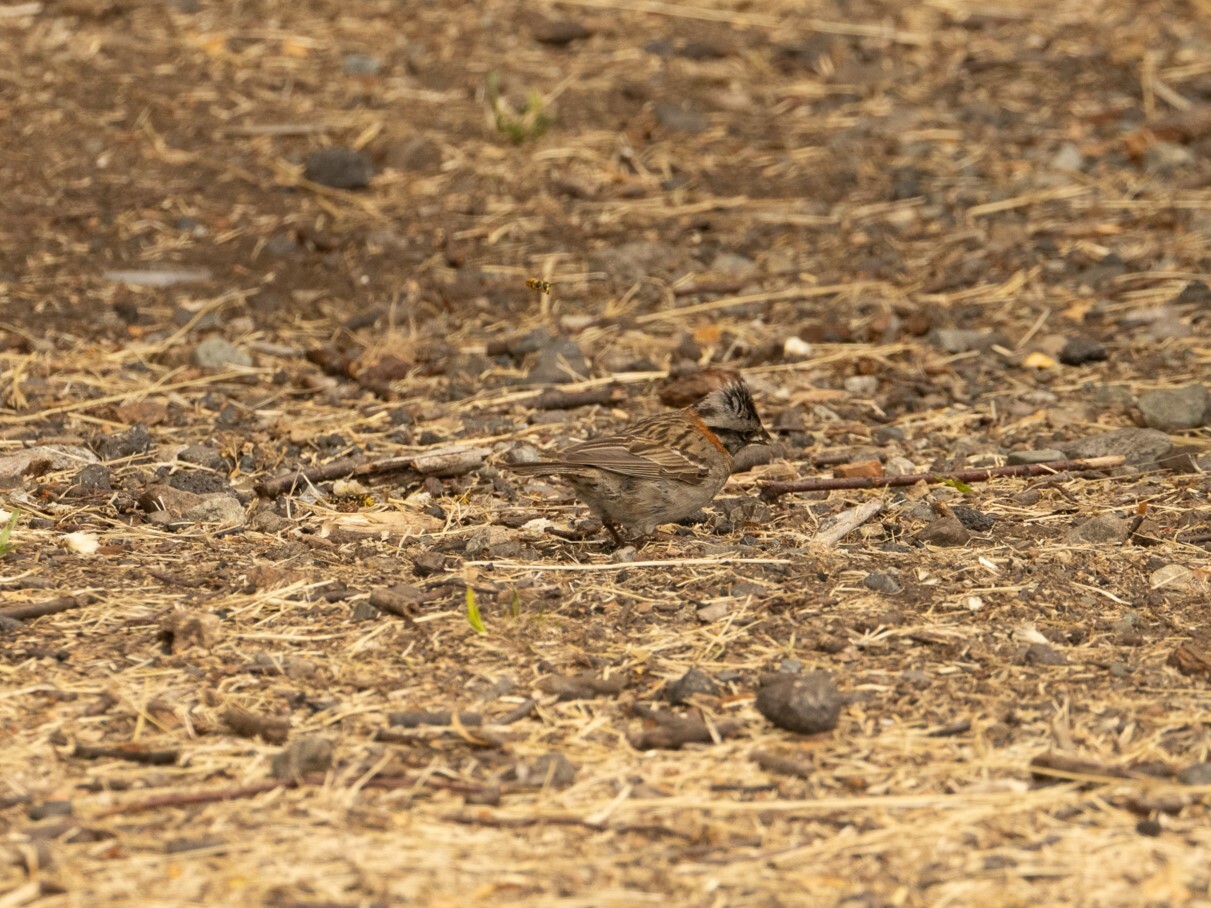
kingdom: Animalia
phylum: Chordata
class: Aves
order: Passeriformes
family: Passerellidae
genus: Zonotrichia
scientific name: Zonotrichia capensis
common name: Rufous-collared sparrow
